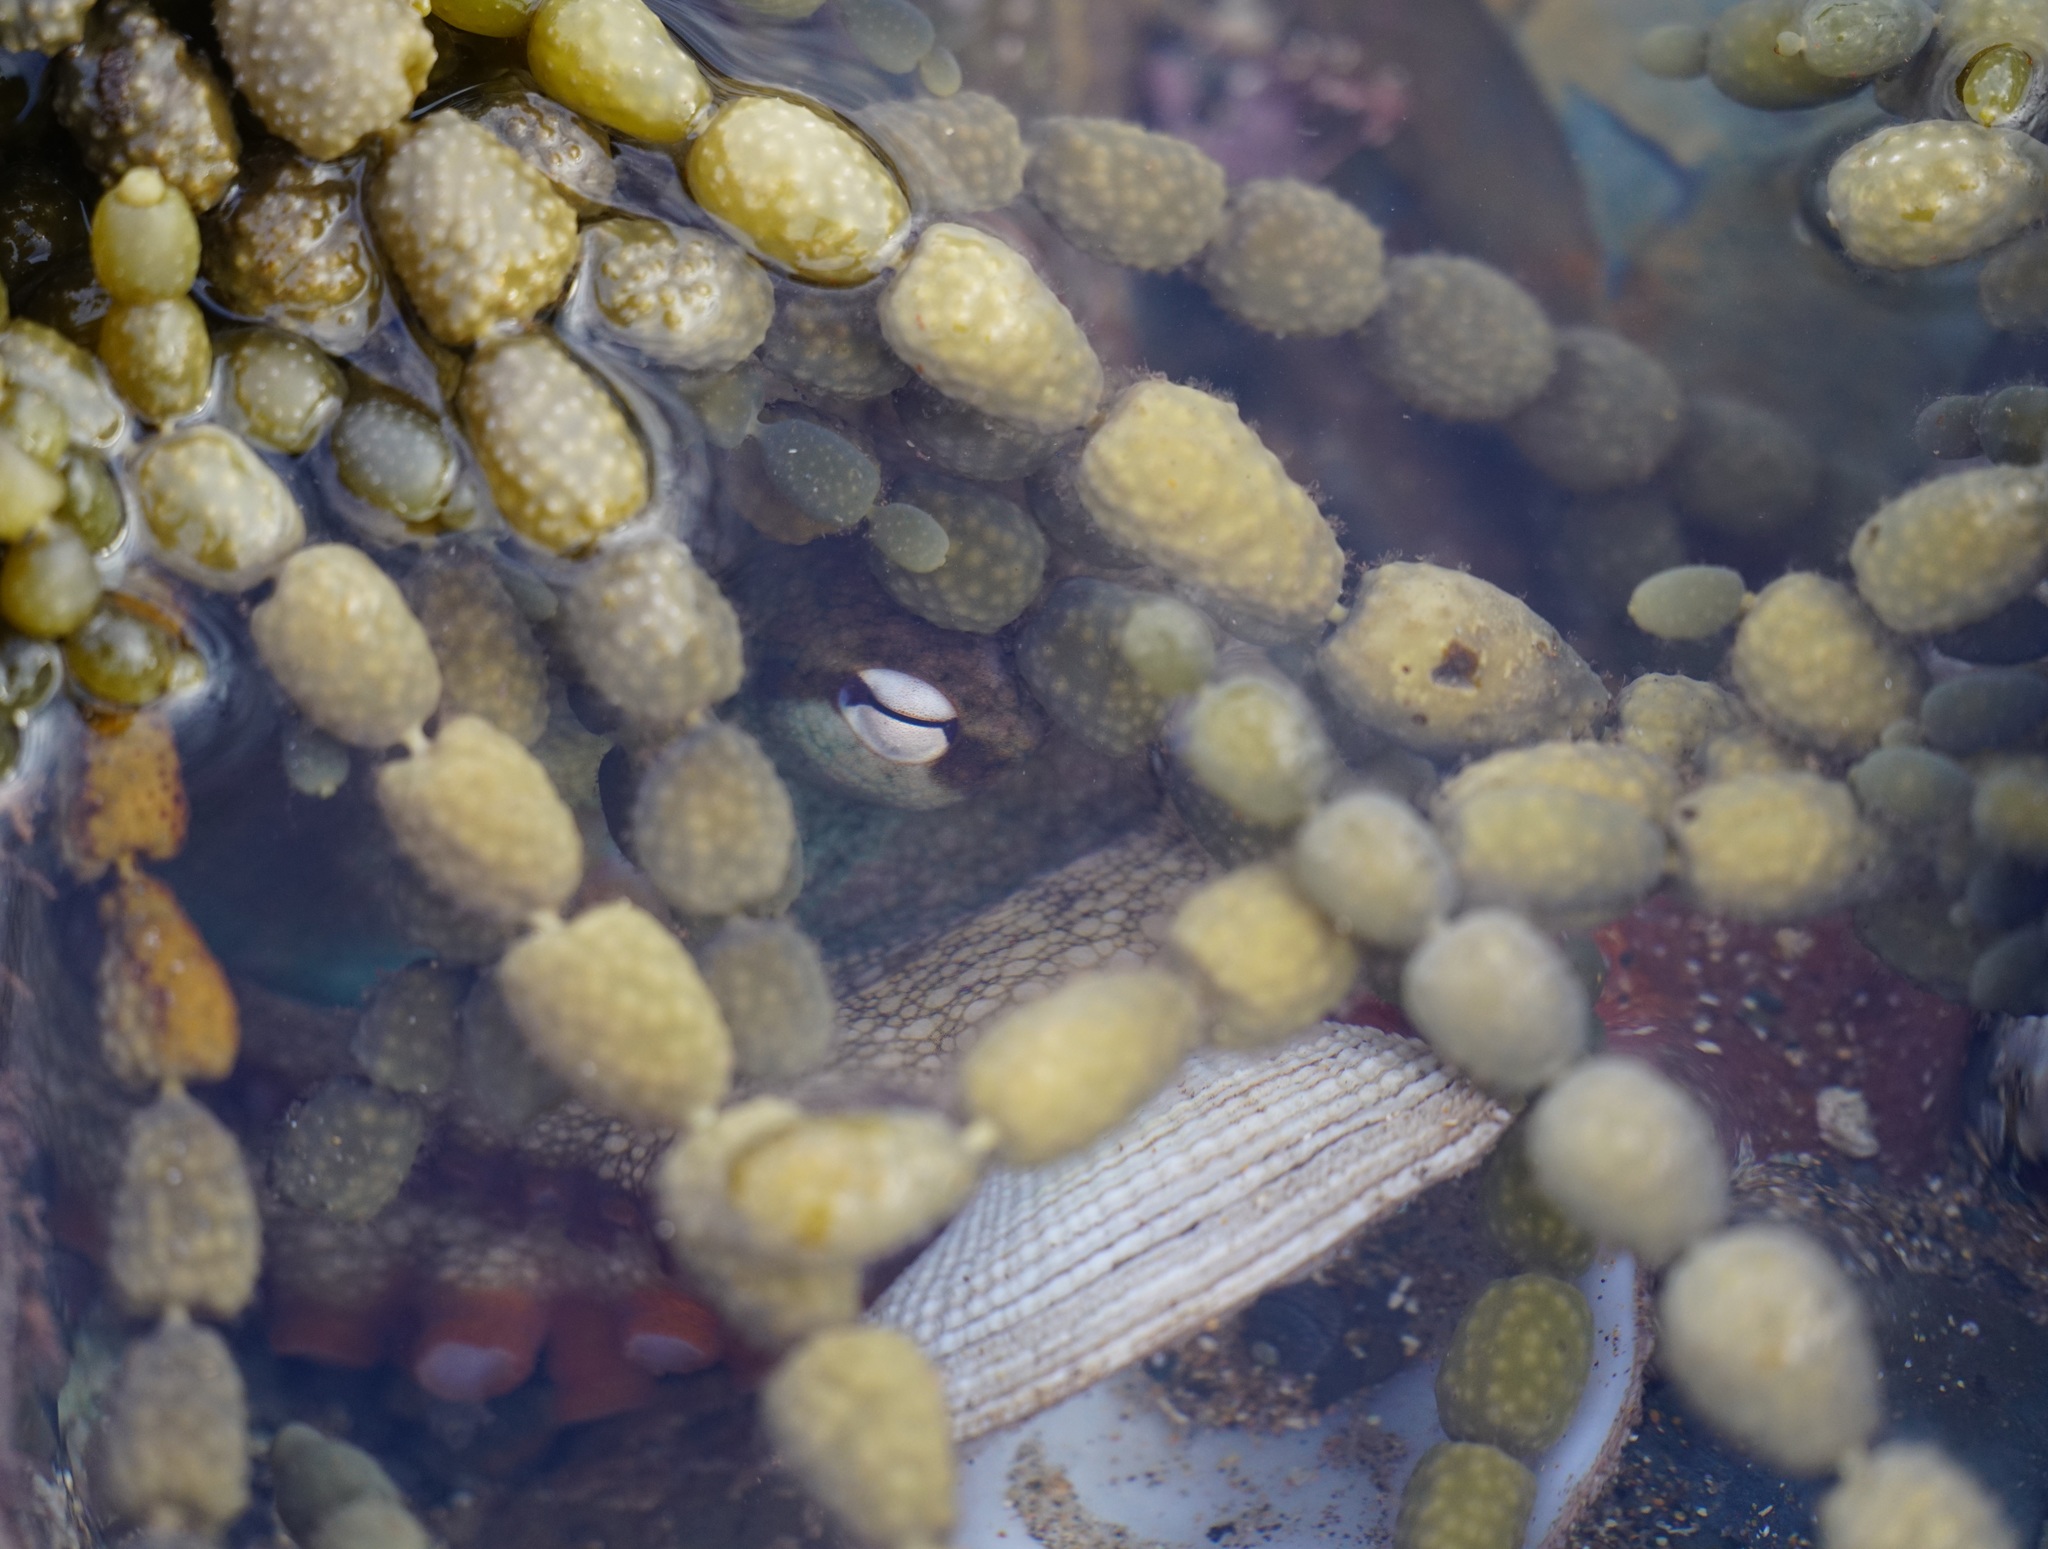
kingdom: Animalia
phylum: Mollusca
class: Cephalopoda
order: Octopoda
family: Octopodidae
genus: Octopus
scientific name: Octopus tetricus
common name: Sydney octopus
